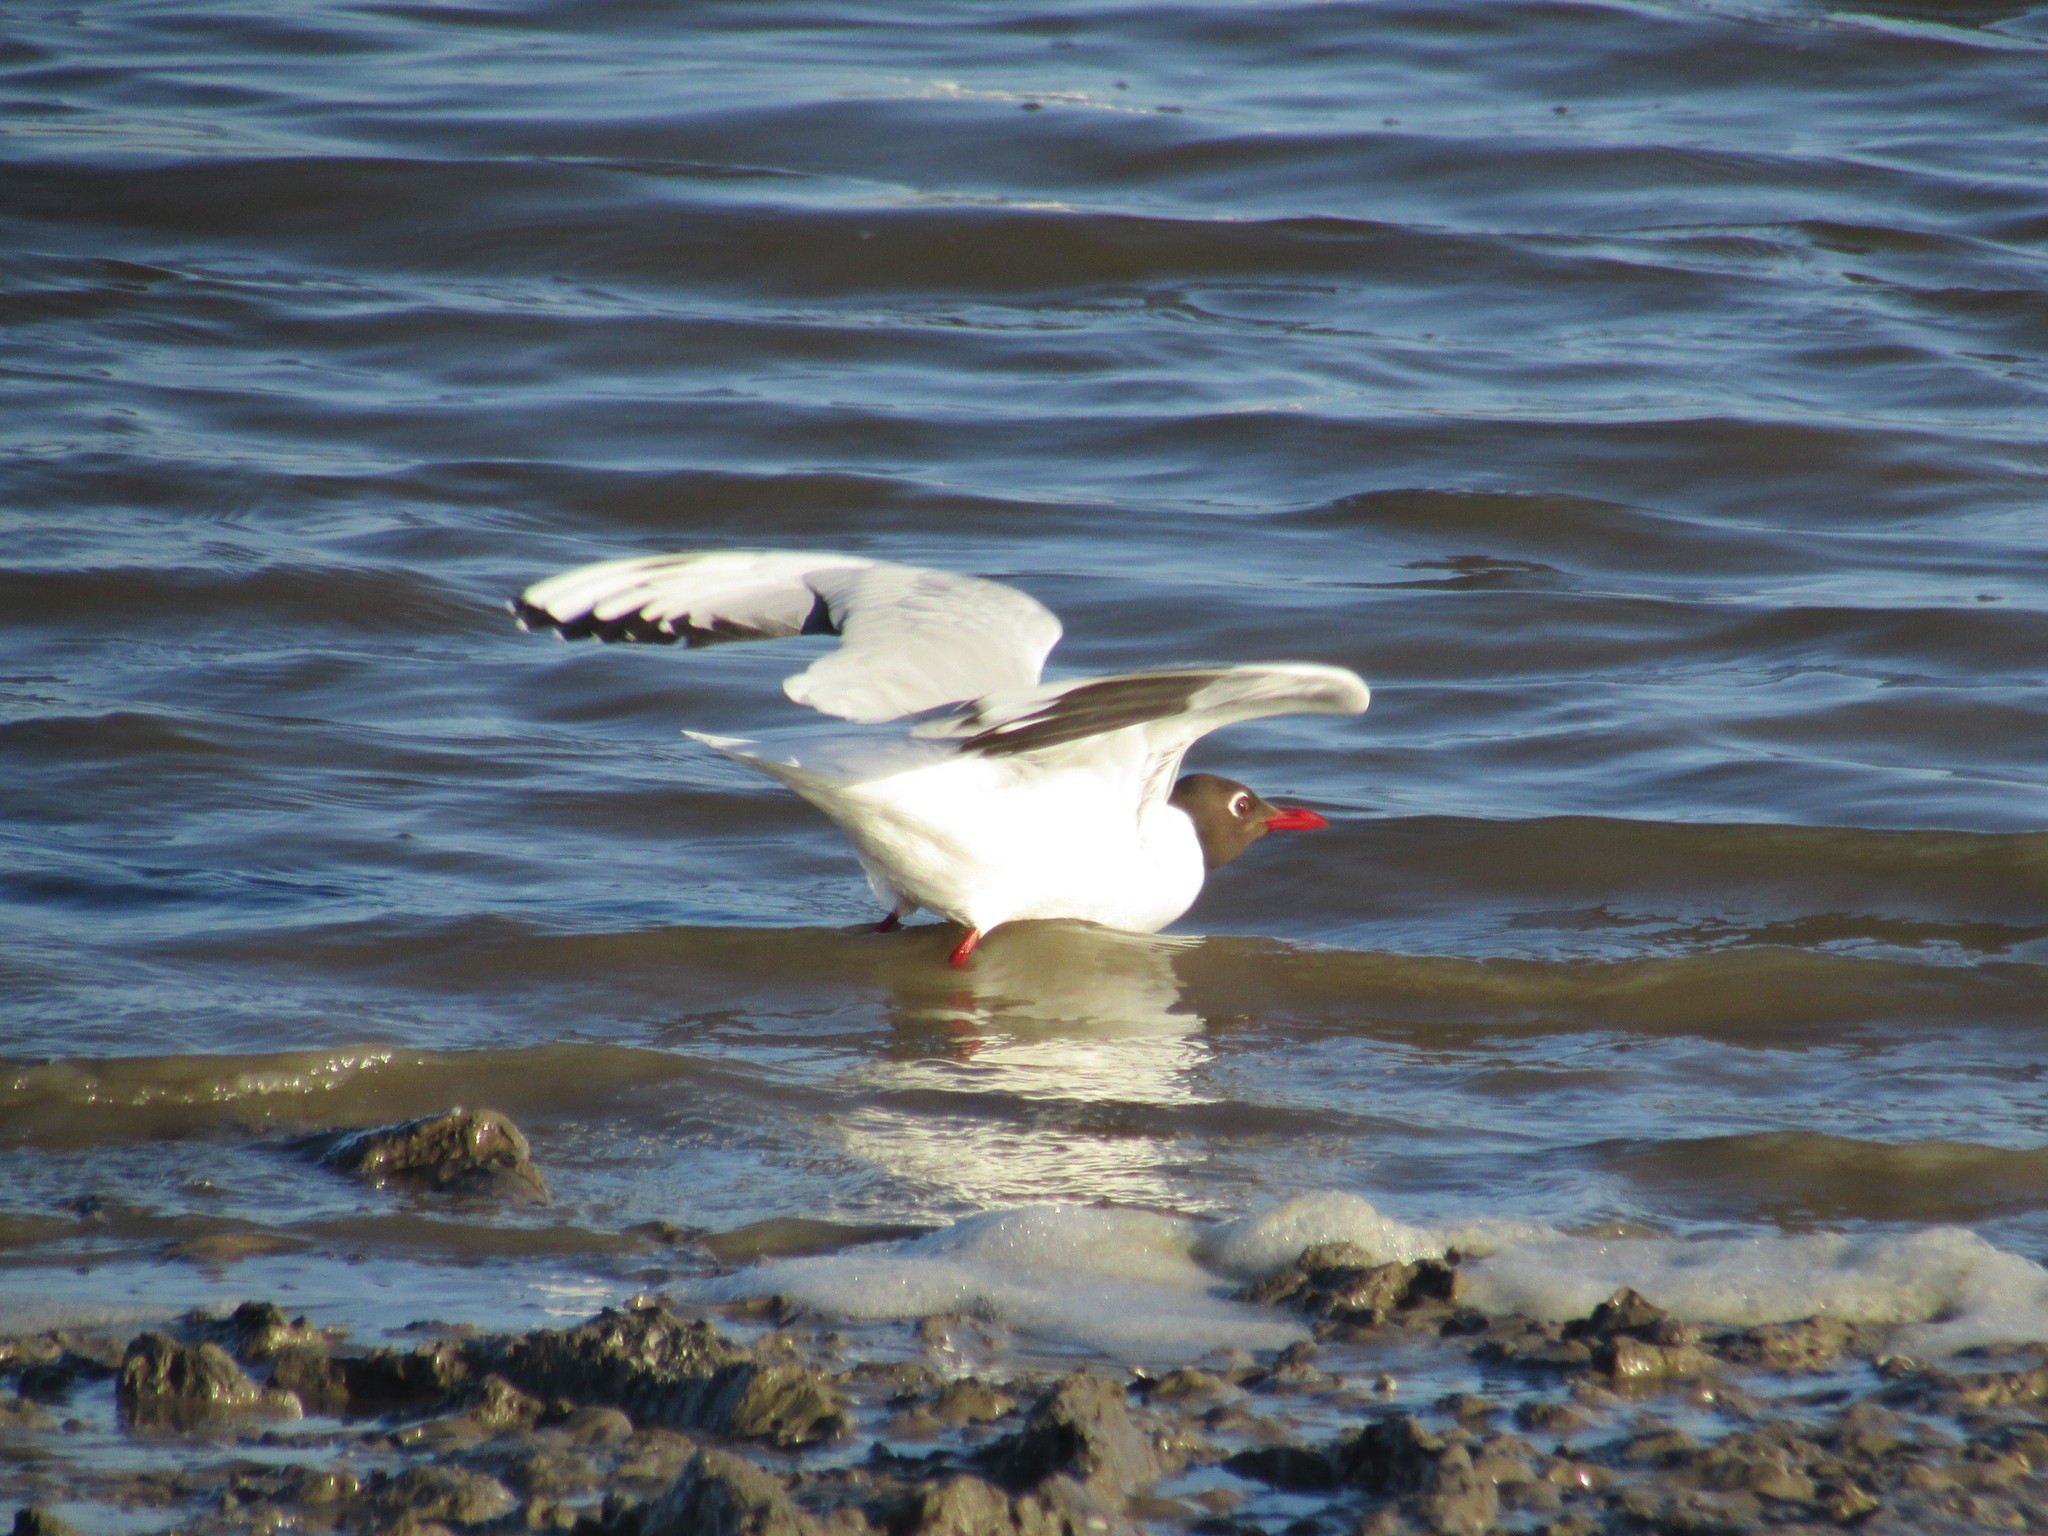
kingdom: Animalia
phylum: Chordata
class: Aves
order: Charadriiformes
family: Laridae
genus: Chroicocephalus
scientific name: Chroicocephalus maculipennis
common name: Brown-hooded gull
